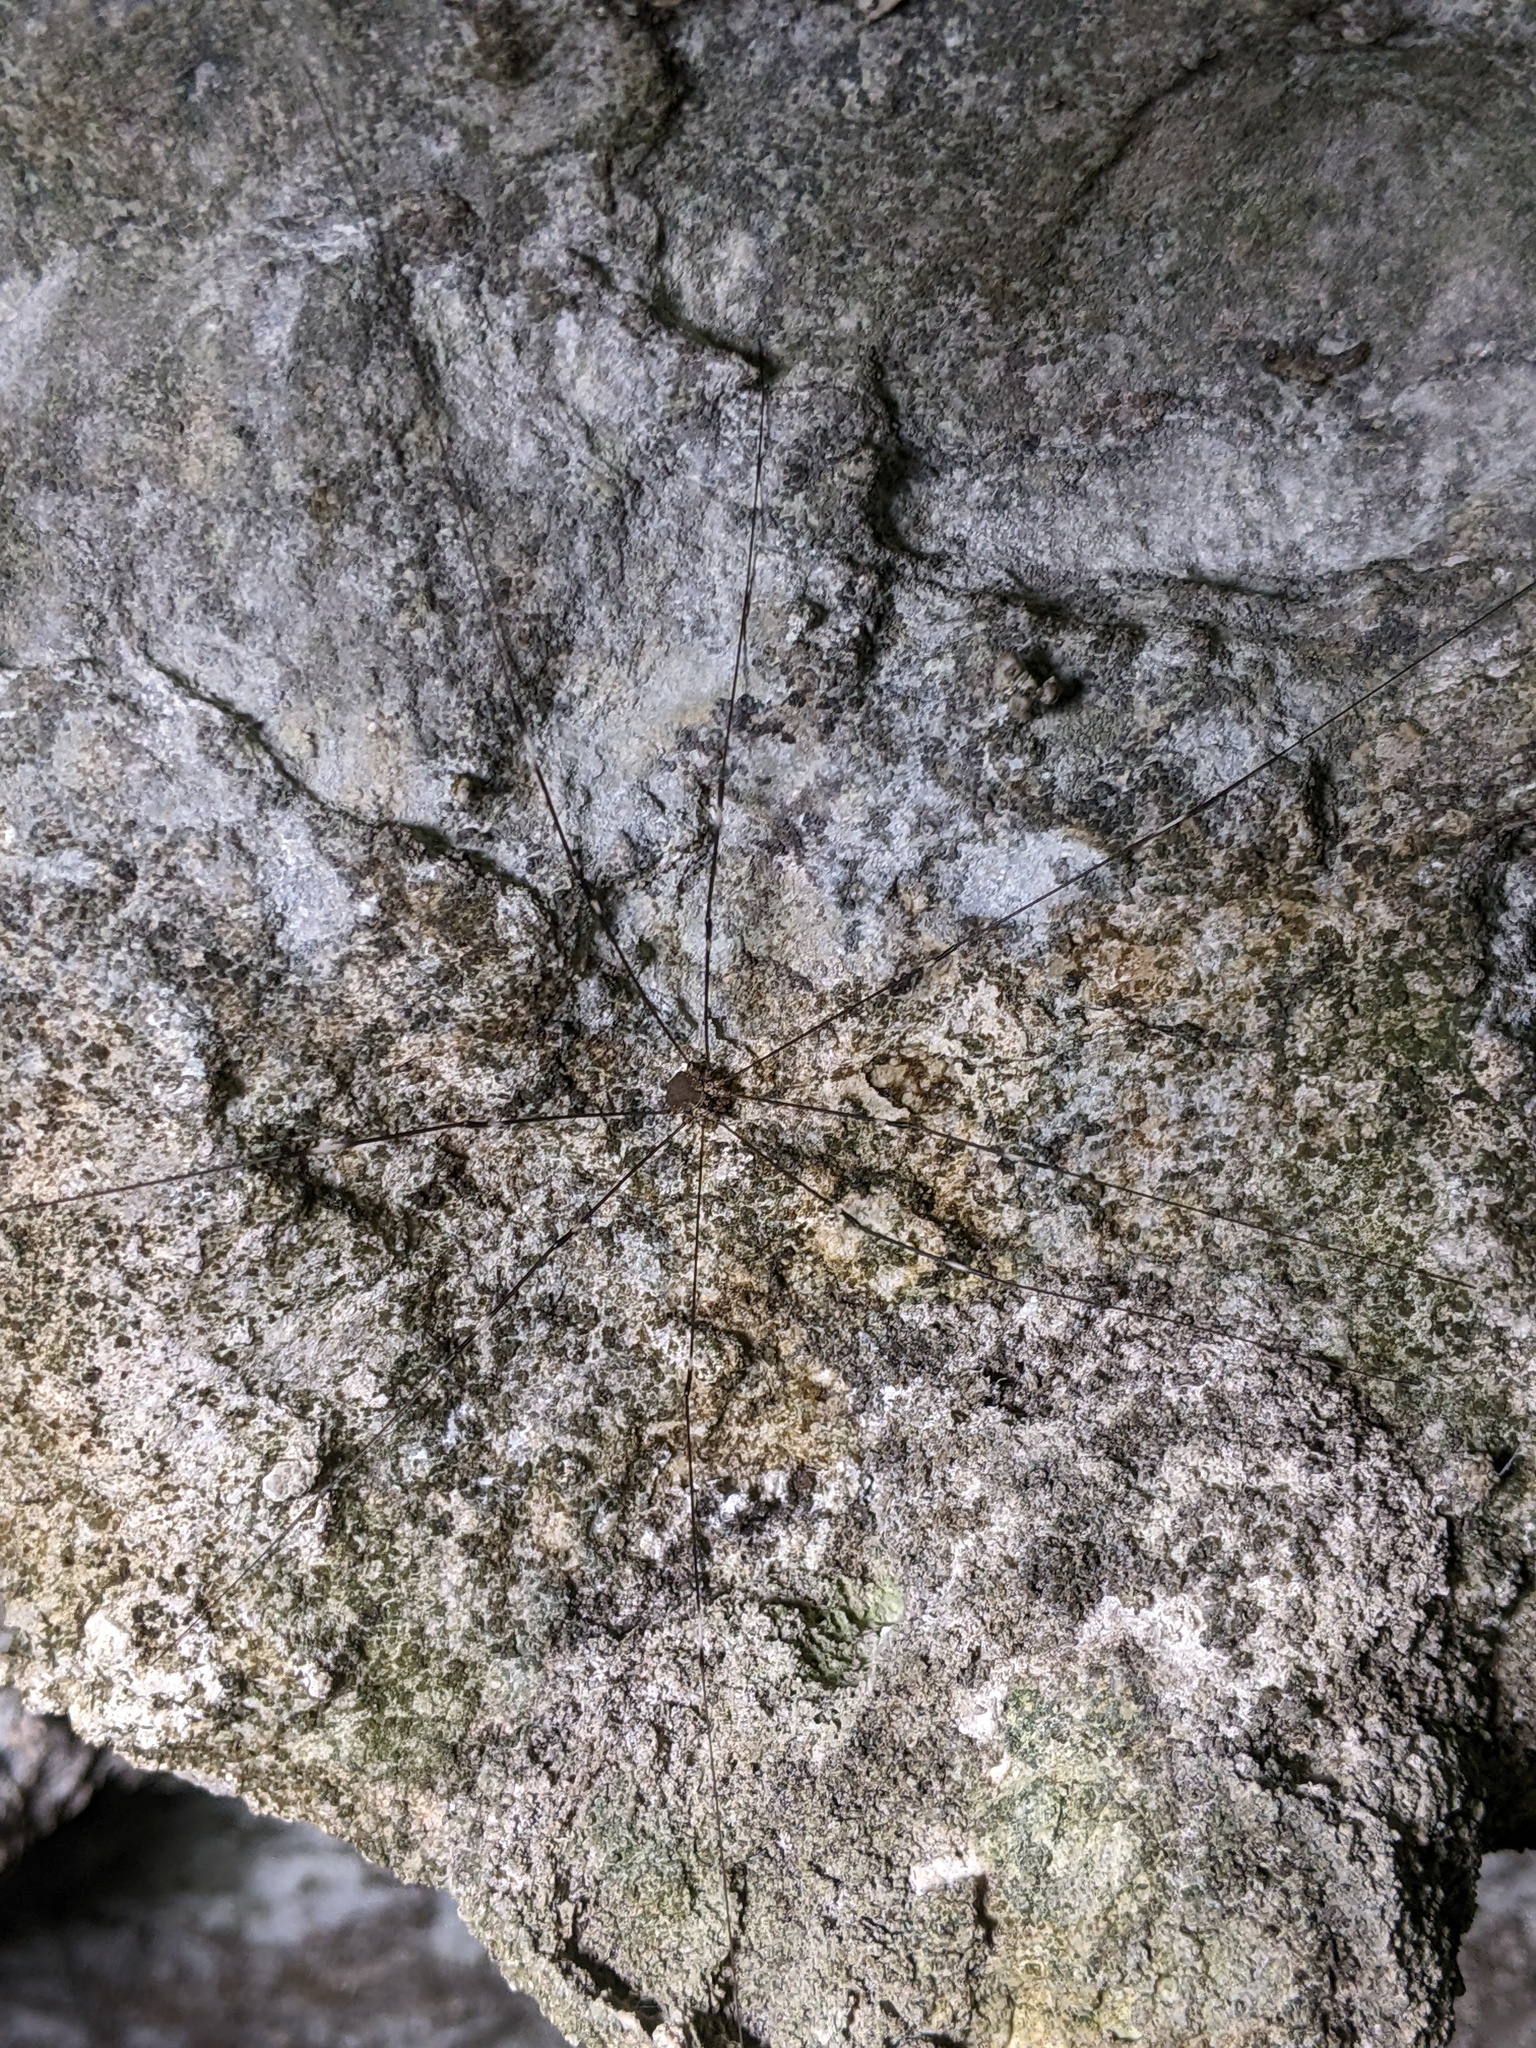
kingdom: Animalia
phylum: Arthropoda
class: Arachnida
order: Opiliones
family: Sclerosomatidae
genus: Leiobunum
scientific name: Leiobunum townsendi
